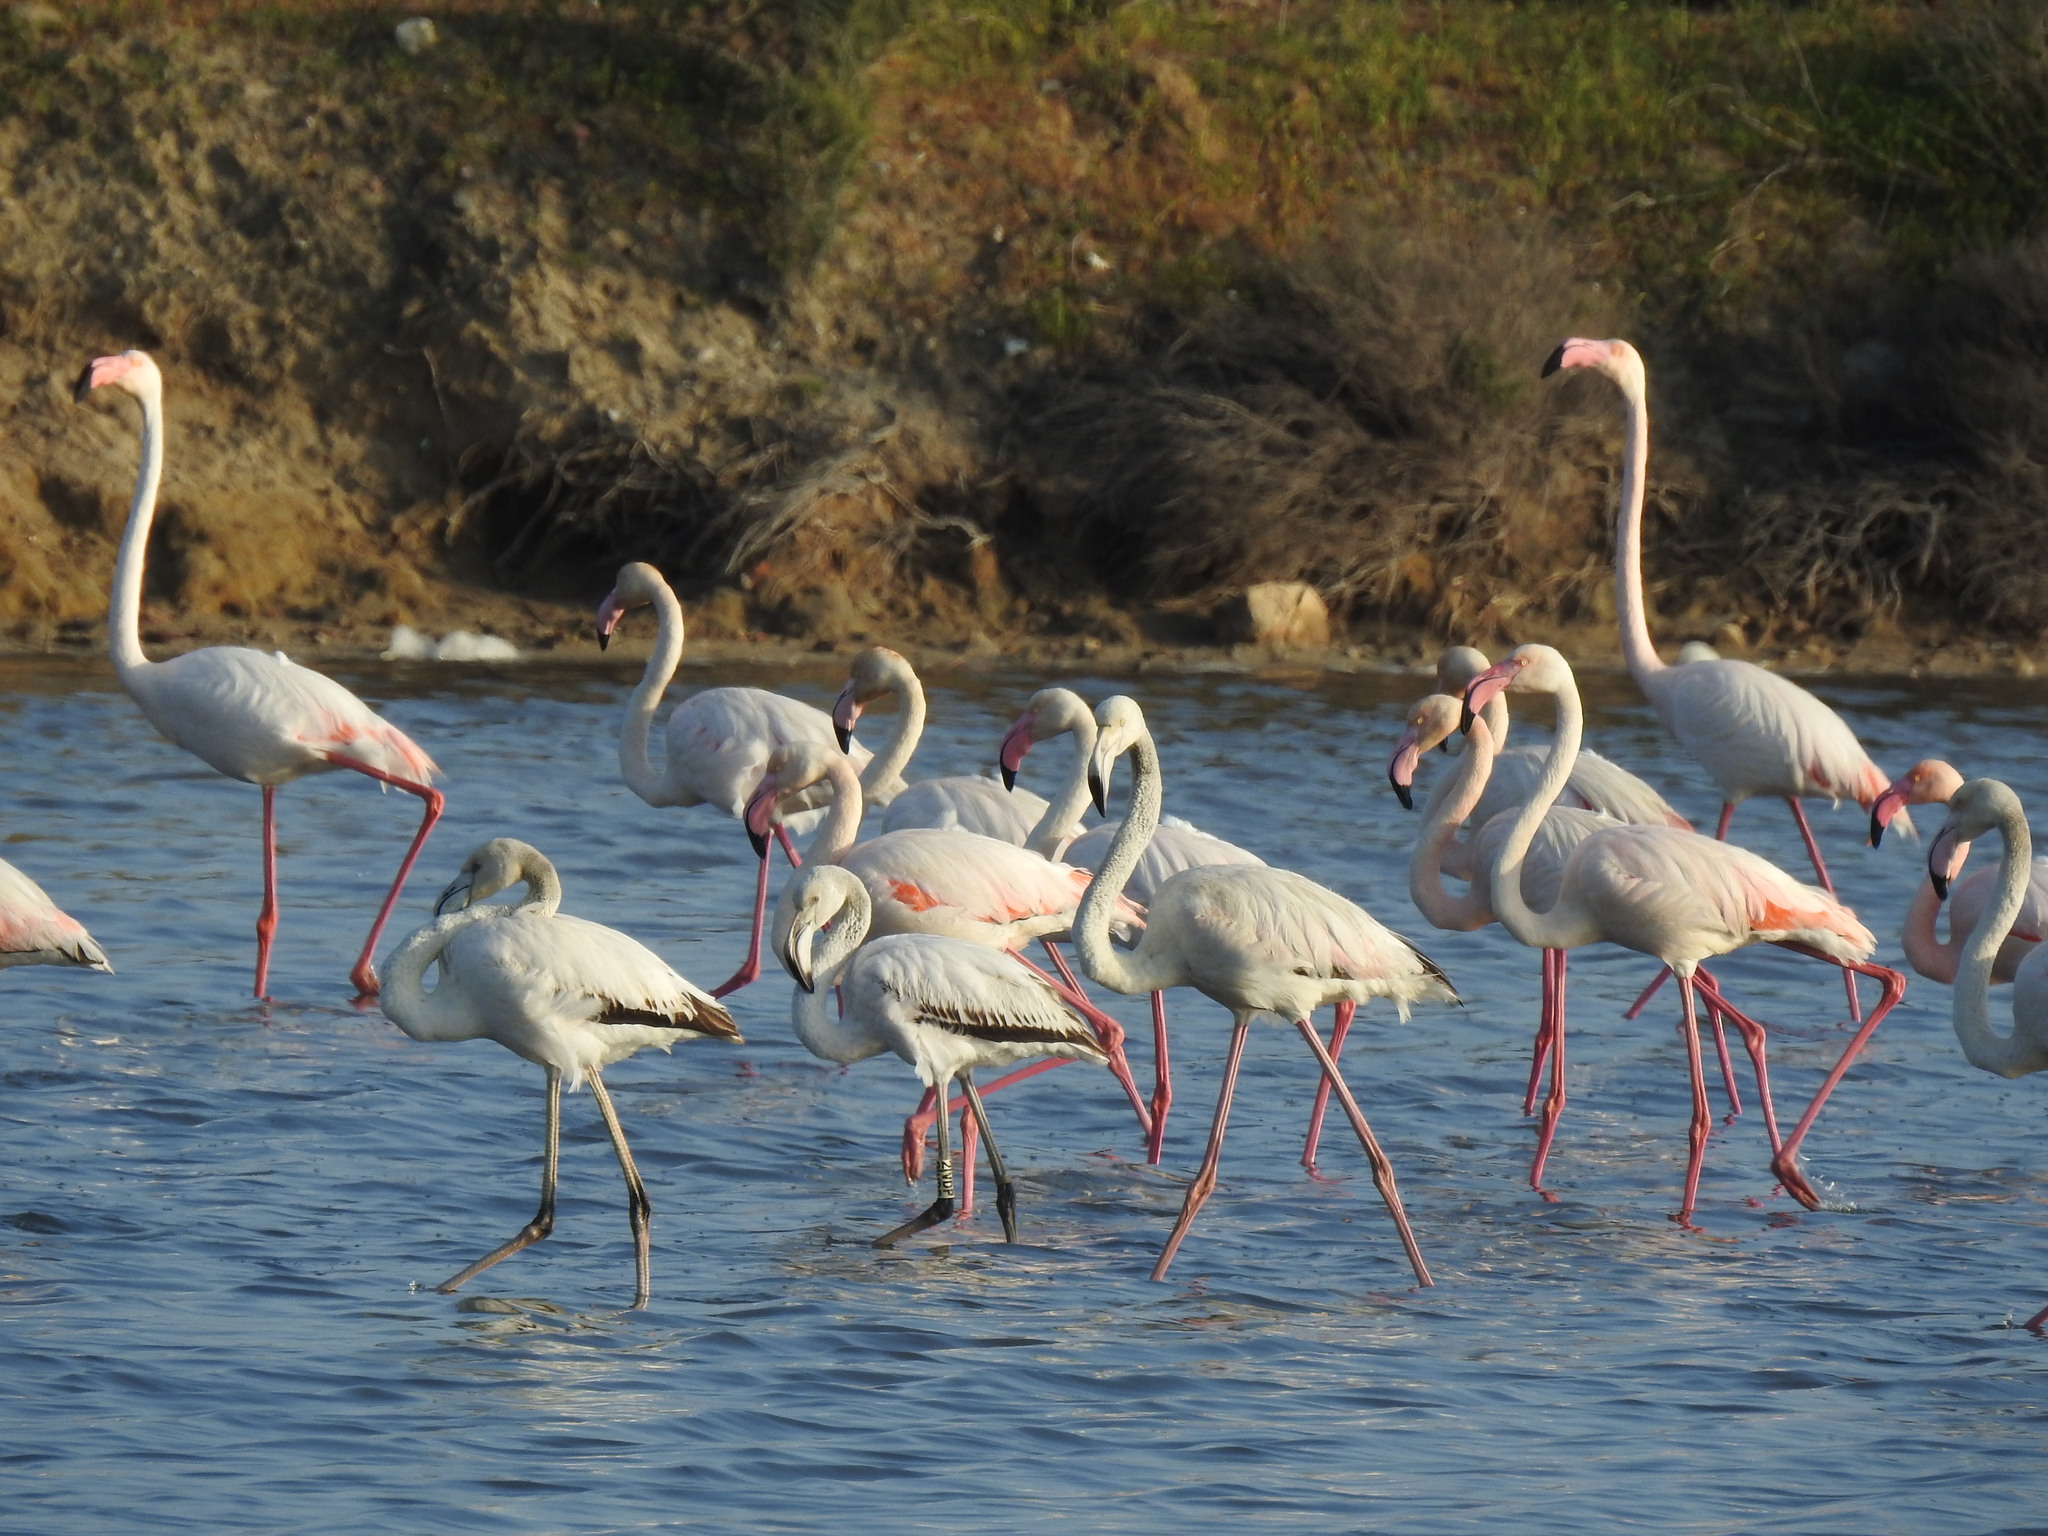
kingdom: Animalia
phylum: Chordata
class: Aves
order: Phoenicopteriformes
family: Phoenicopteridae
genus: Phoenicopterus
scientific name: Phoenicopterus roseus
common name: Greater flamingo
